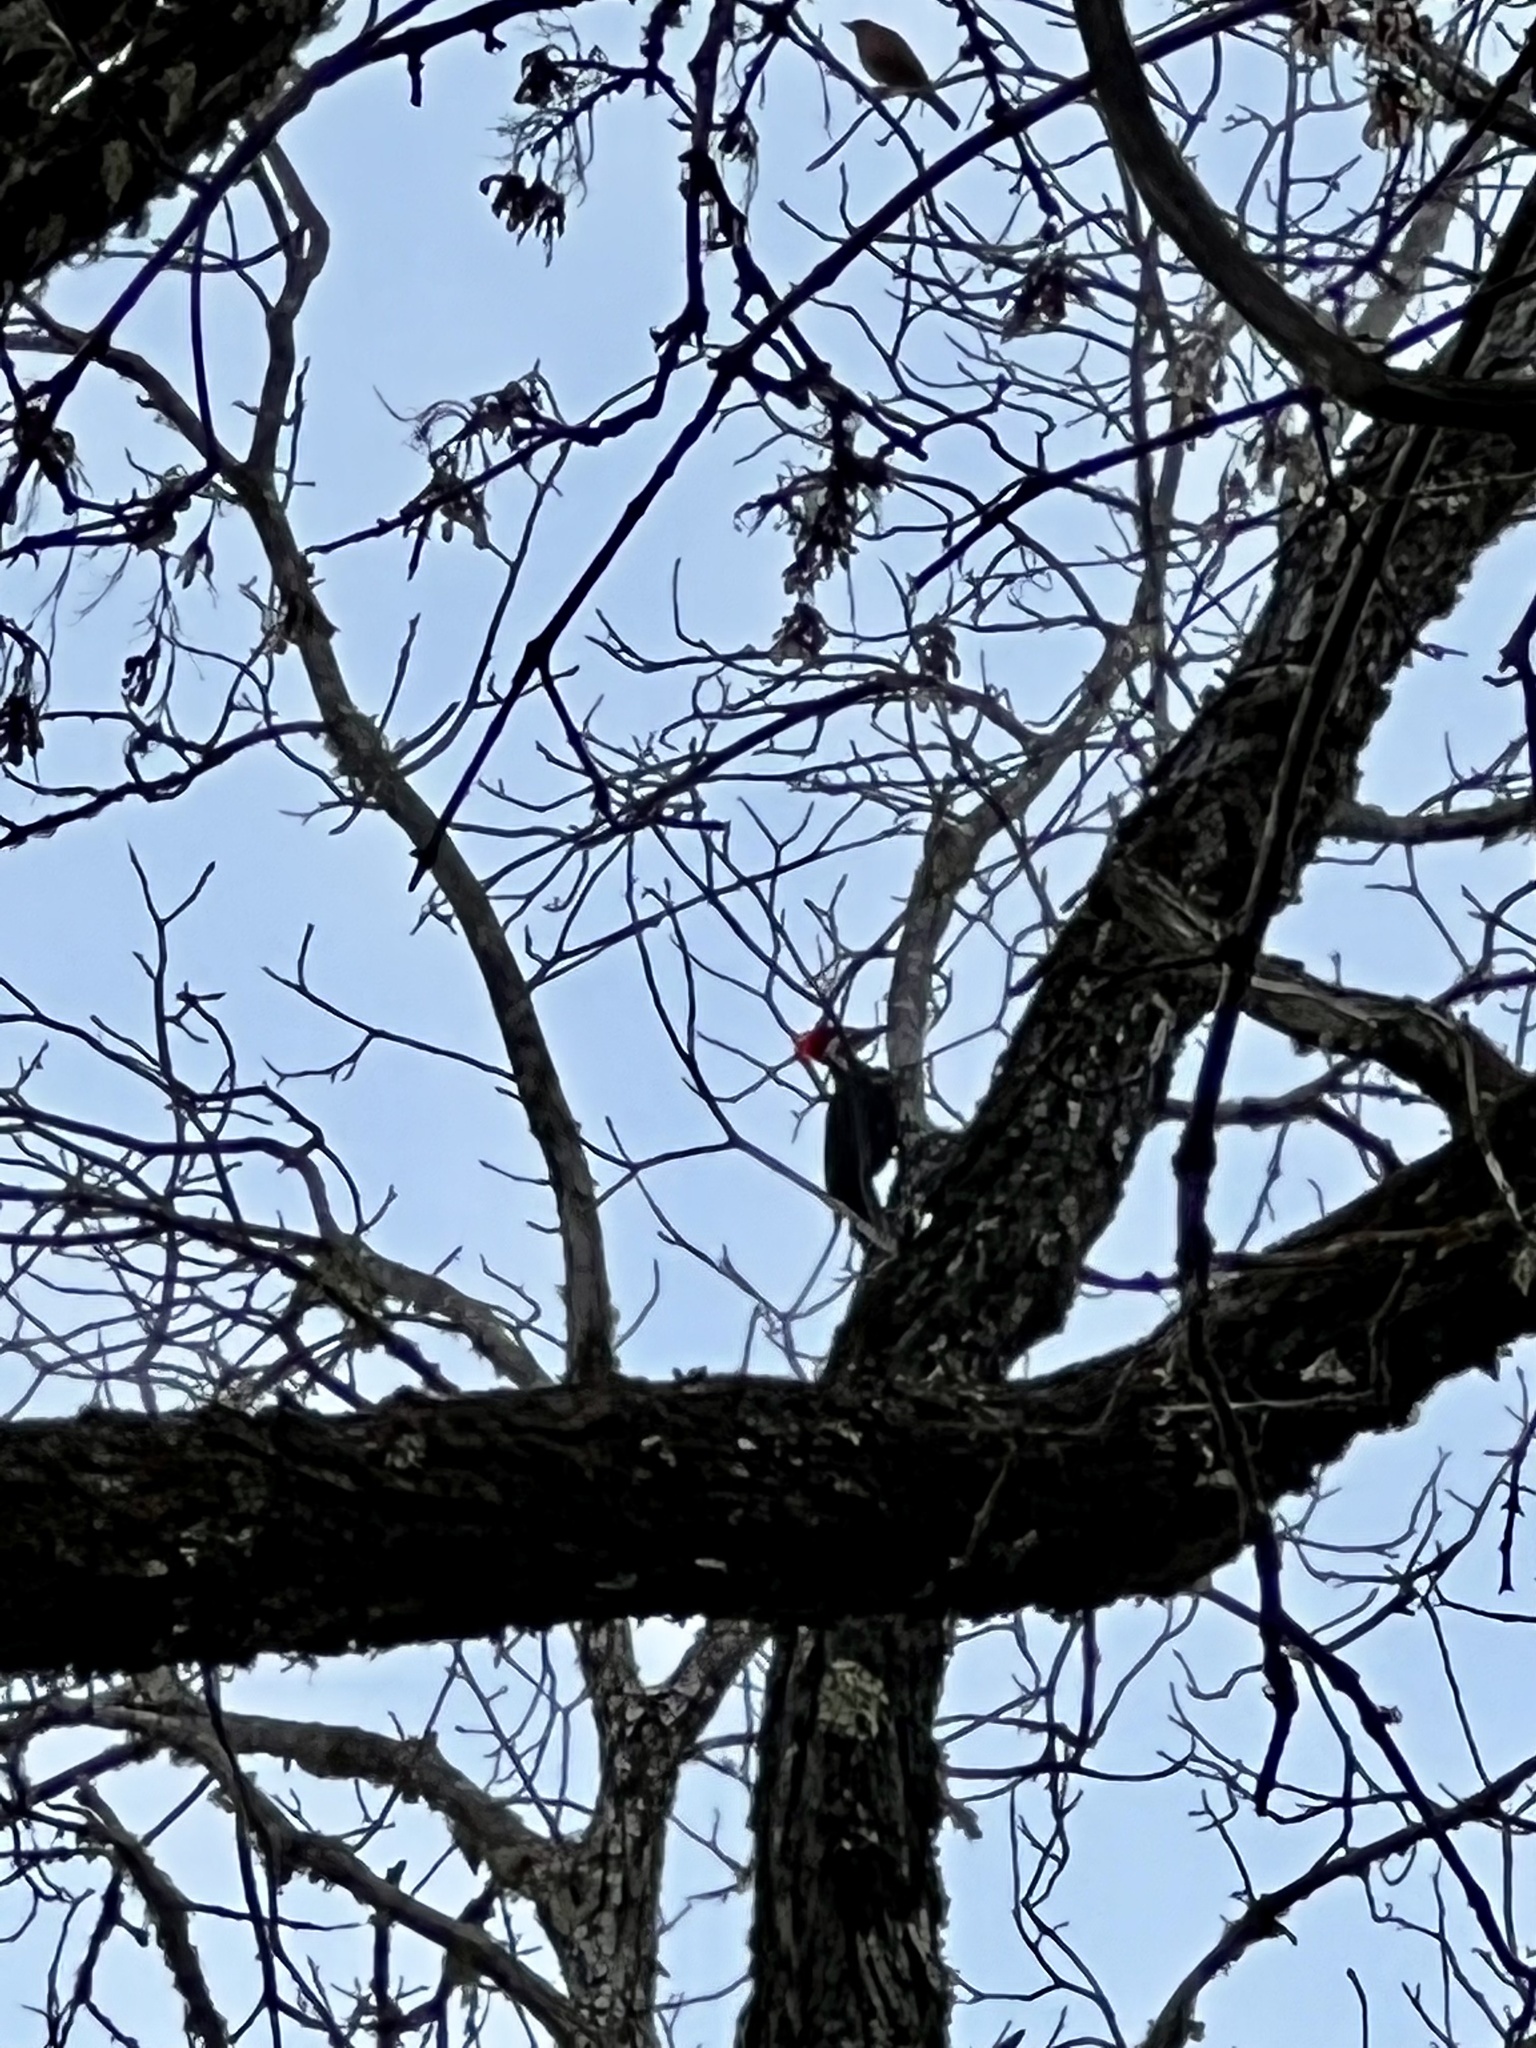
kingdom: Animalia
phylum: Chordata
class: Aves
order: Piciformes
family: Picidae
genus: Dryocopus
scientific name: Dryocopus pileatus
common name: Pileated woodpecker
